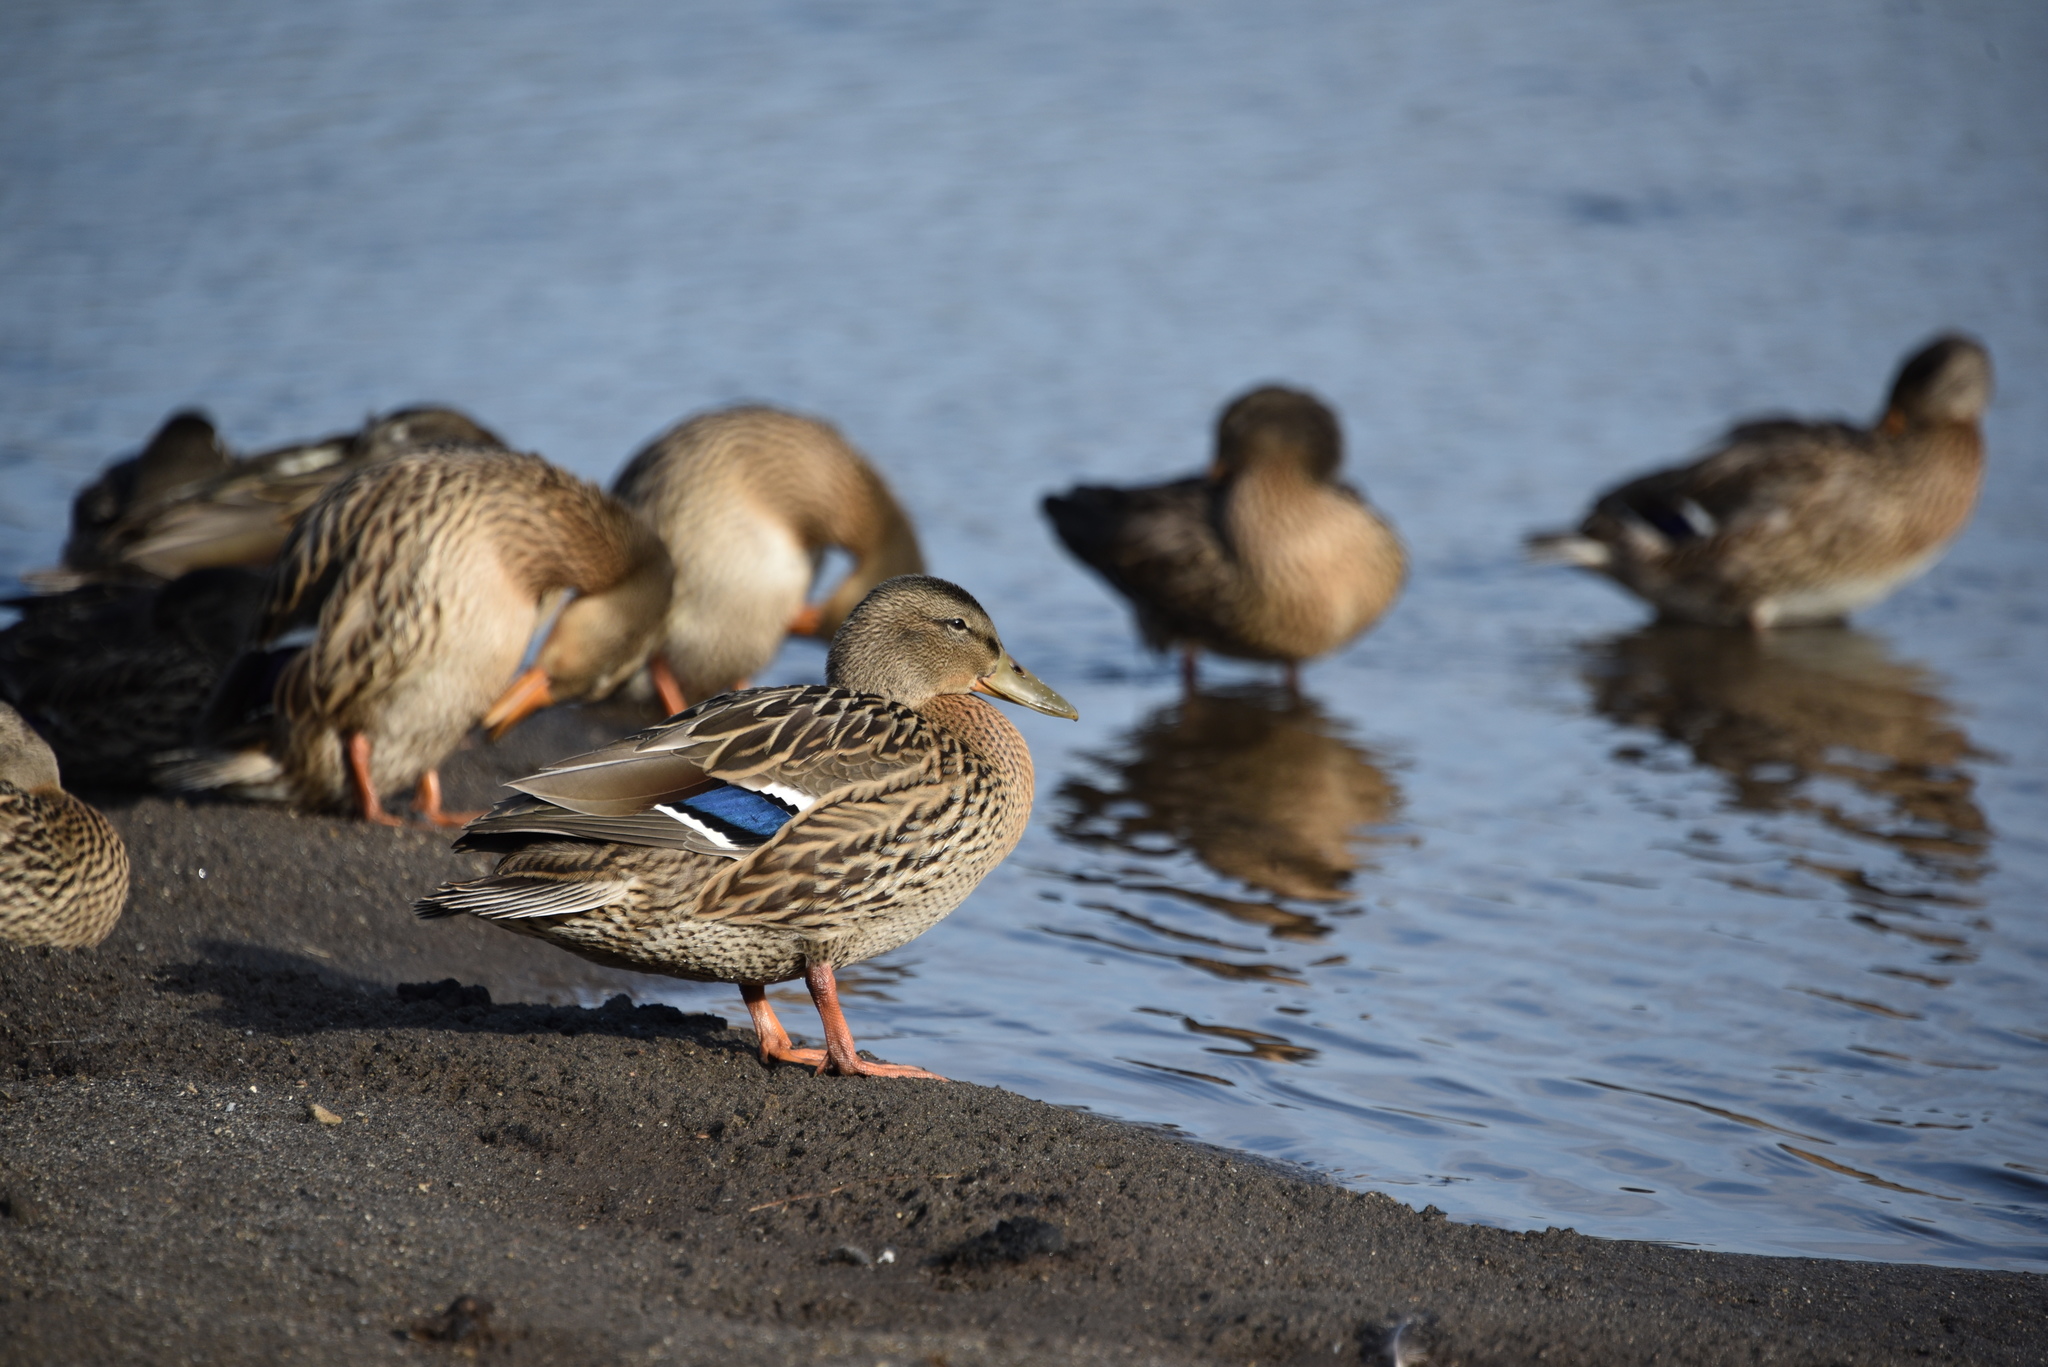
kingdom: Animalia
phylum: Chordata
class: Aves
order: Anseriformes
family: Anatidae
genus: Anas
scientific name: Anas platyrhynchos
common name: Mallard
